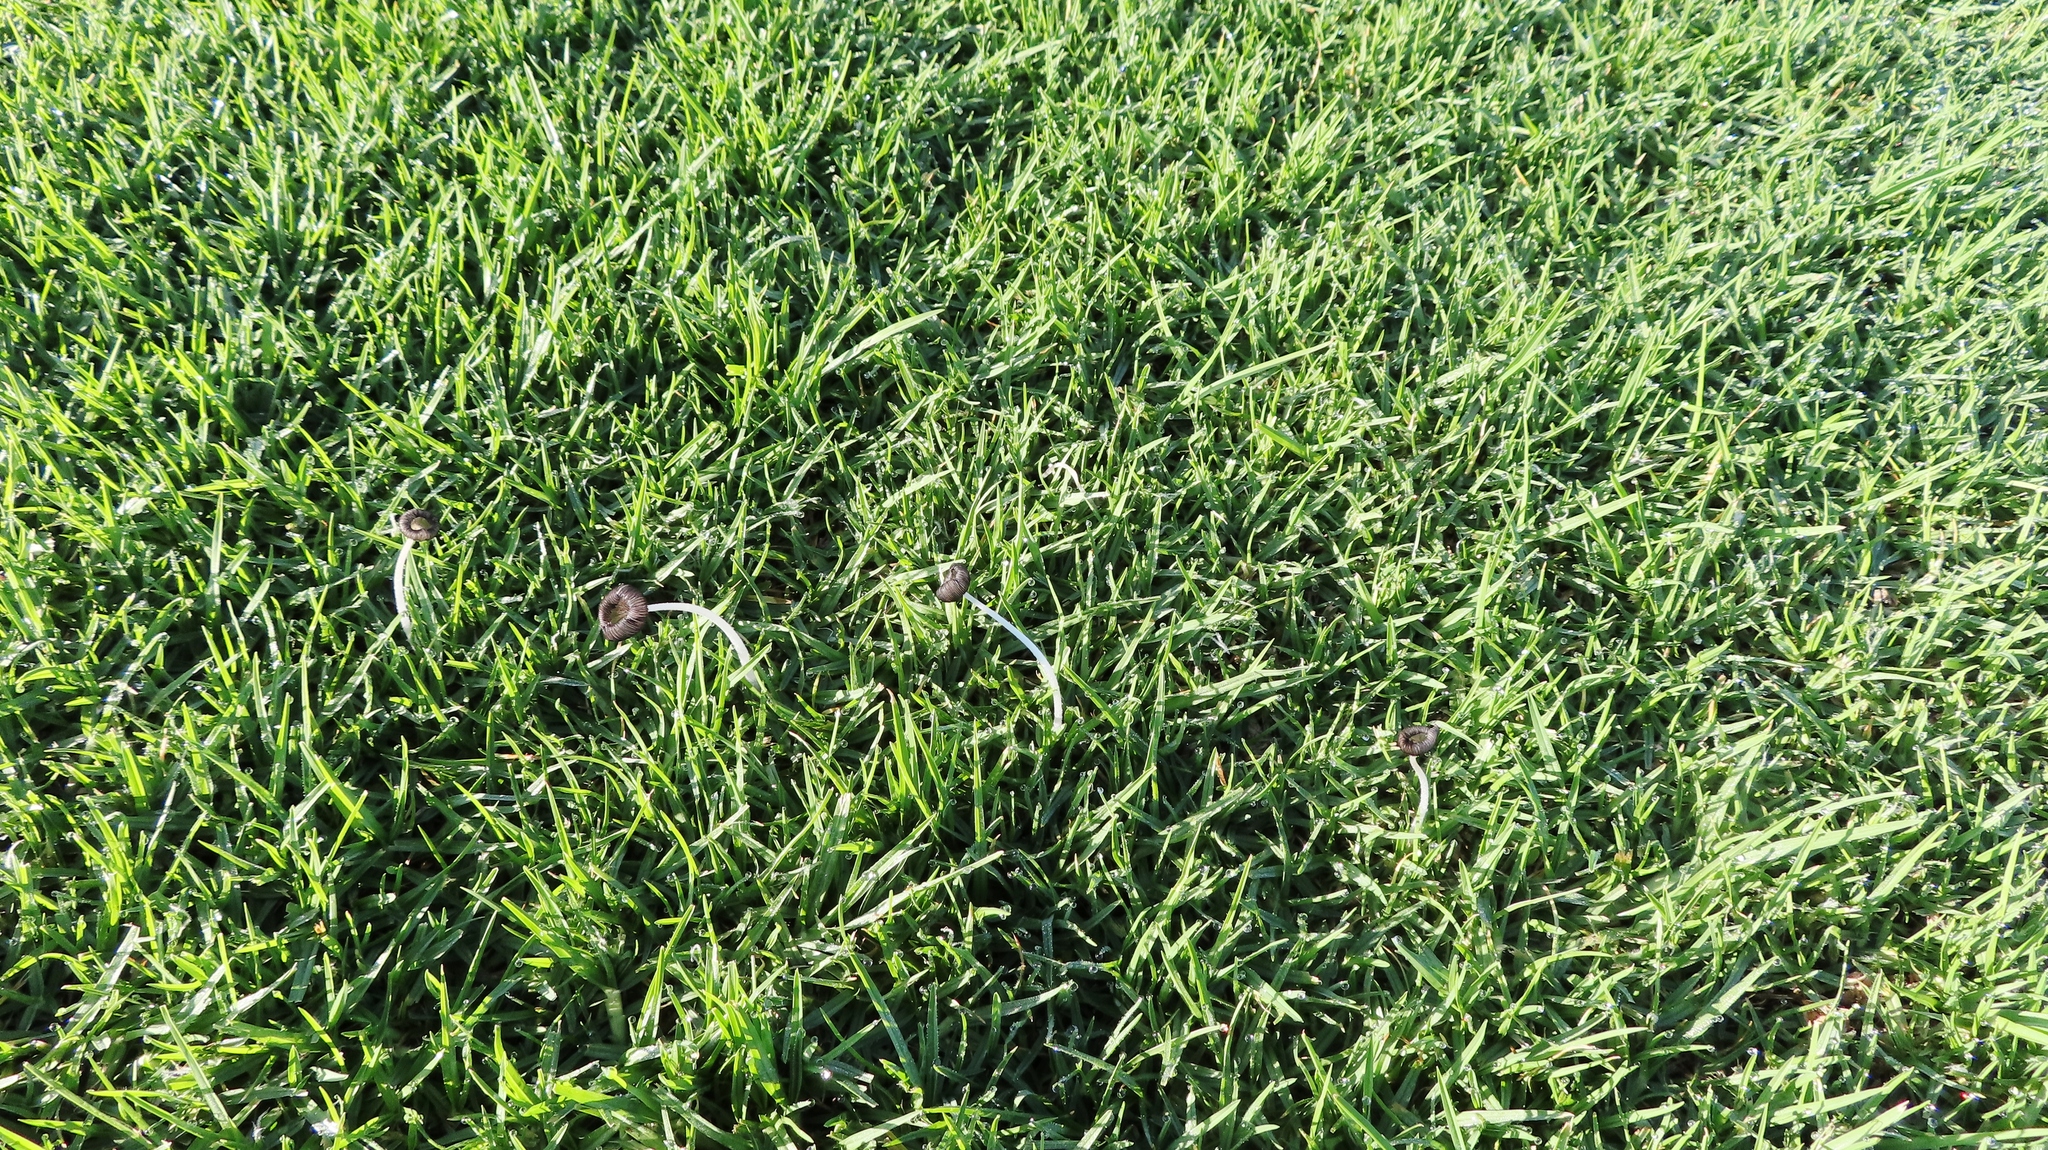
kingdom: Plantae
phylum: Tracheophyta
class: Liliopsida
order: Poales
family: Poaceae
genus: Cenchrus
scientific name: Cenchrus clandestinus
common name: Kikuyugrass
